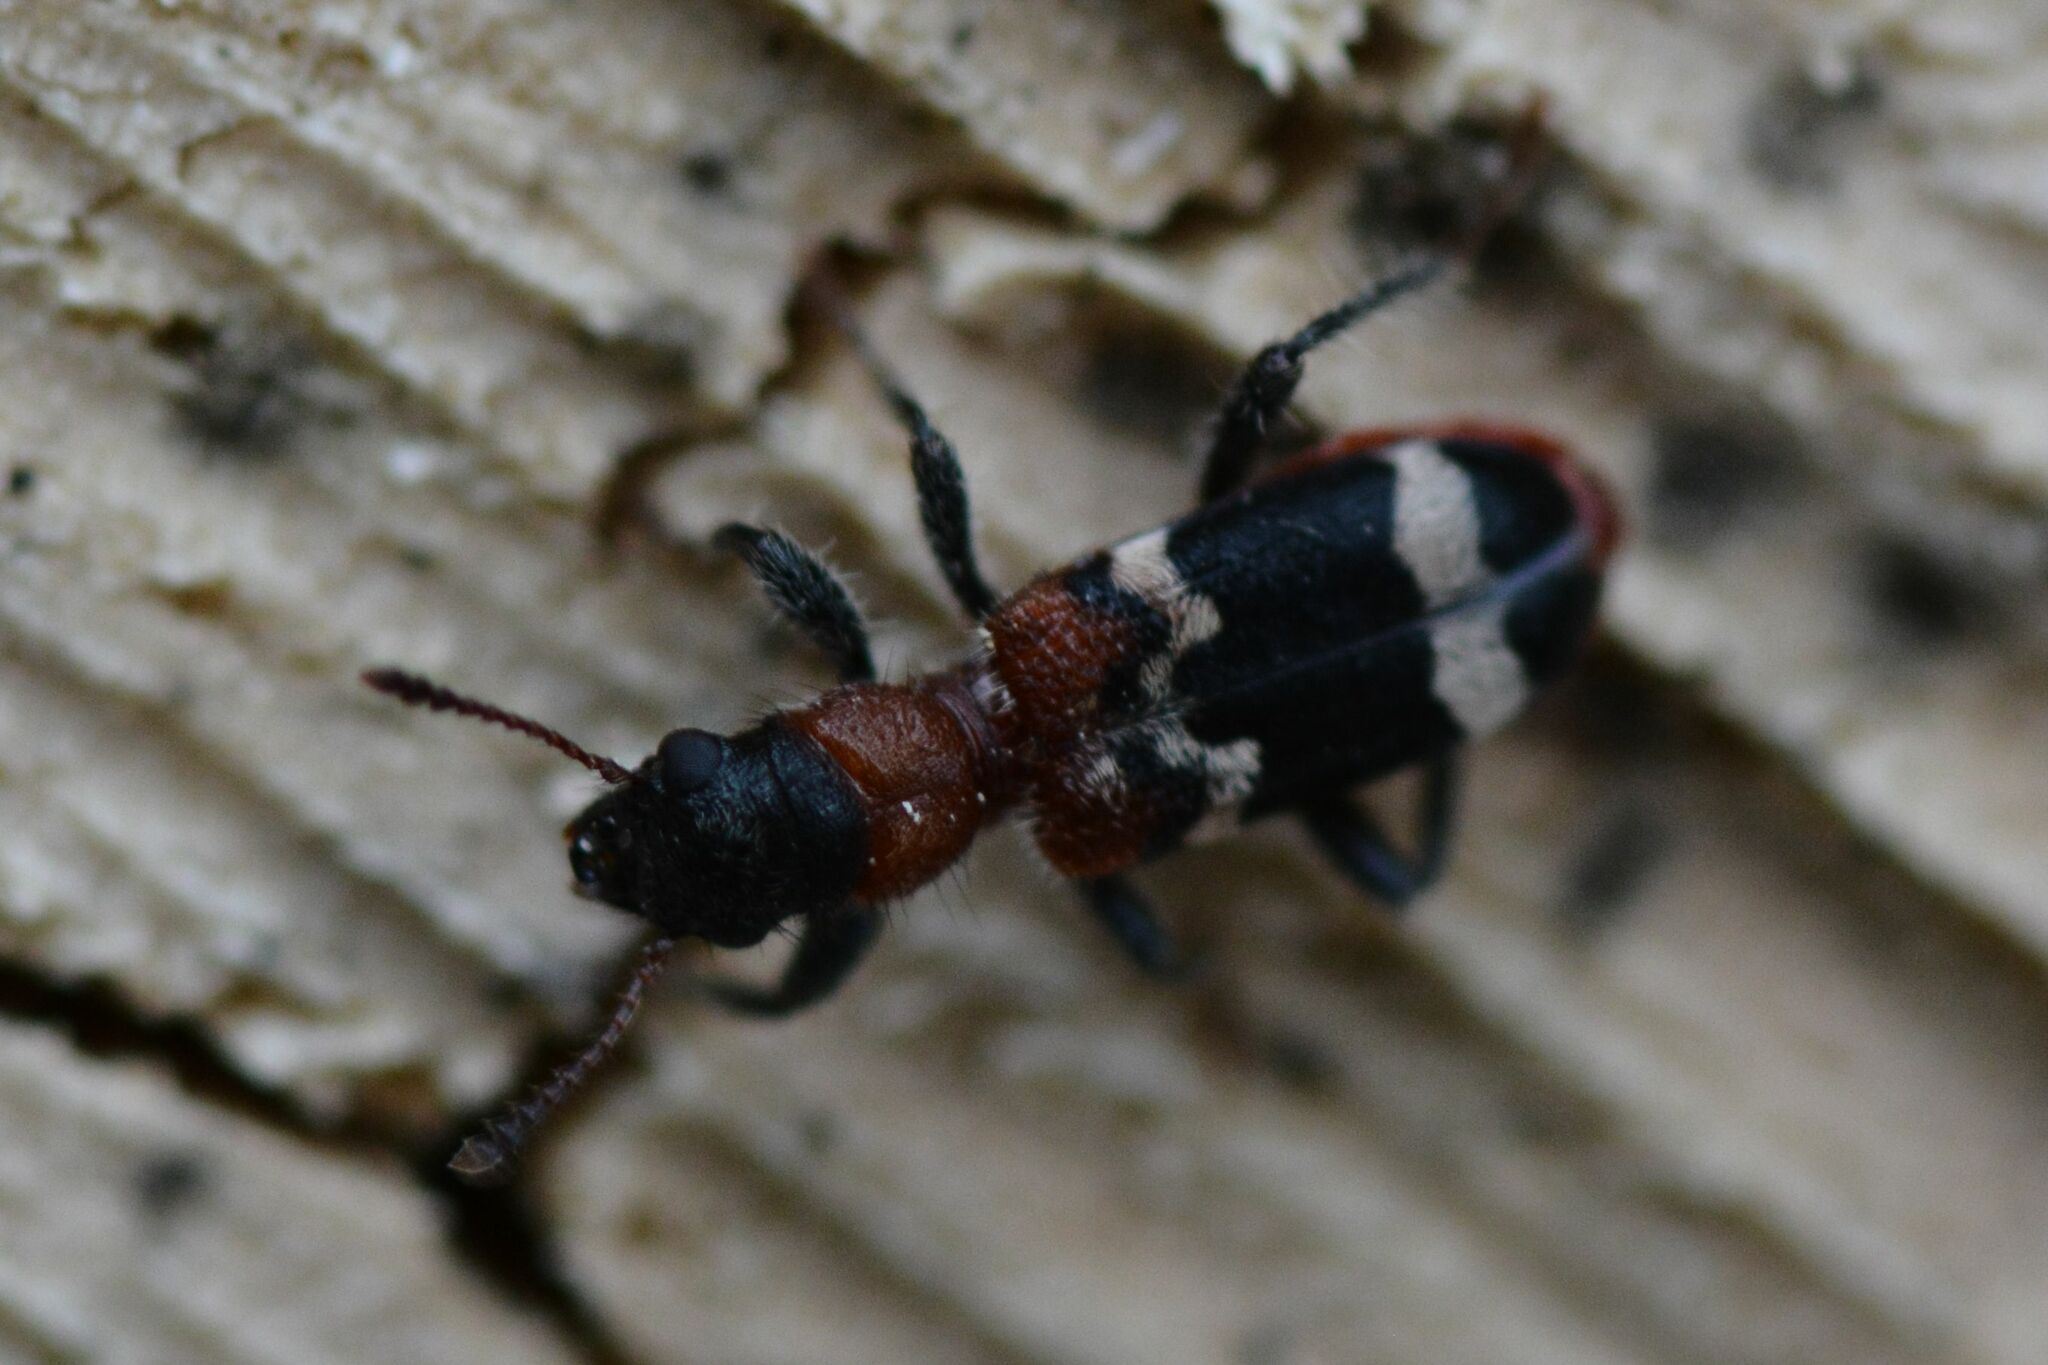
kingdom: Animalia
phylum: Arthropoda
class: Insecta
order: Coleoptera
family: Cleridae
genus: Thanasimus
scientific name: Thanasimus formicarius
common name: Ant beetle
